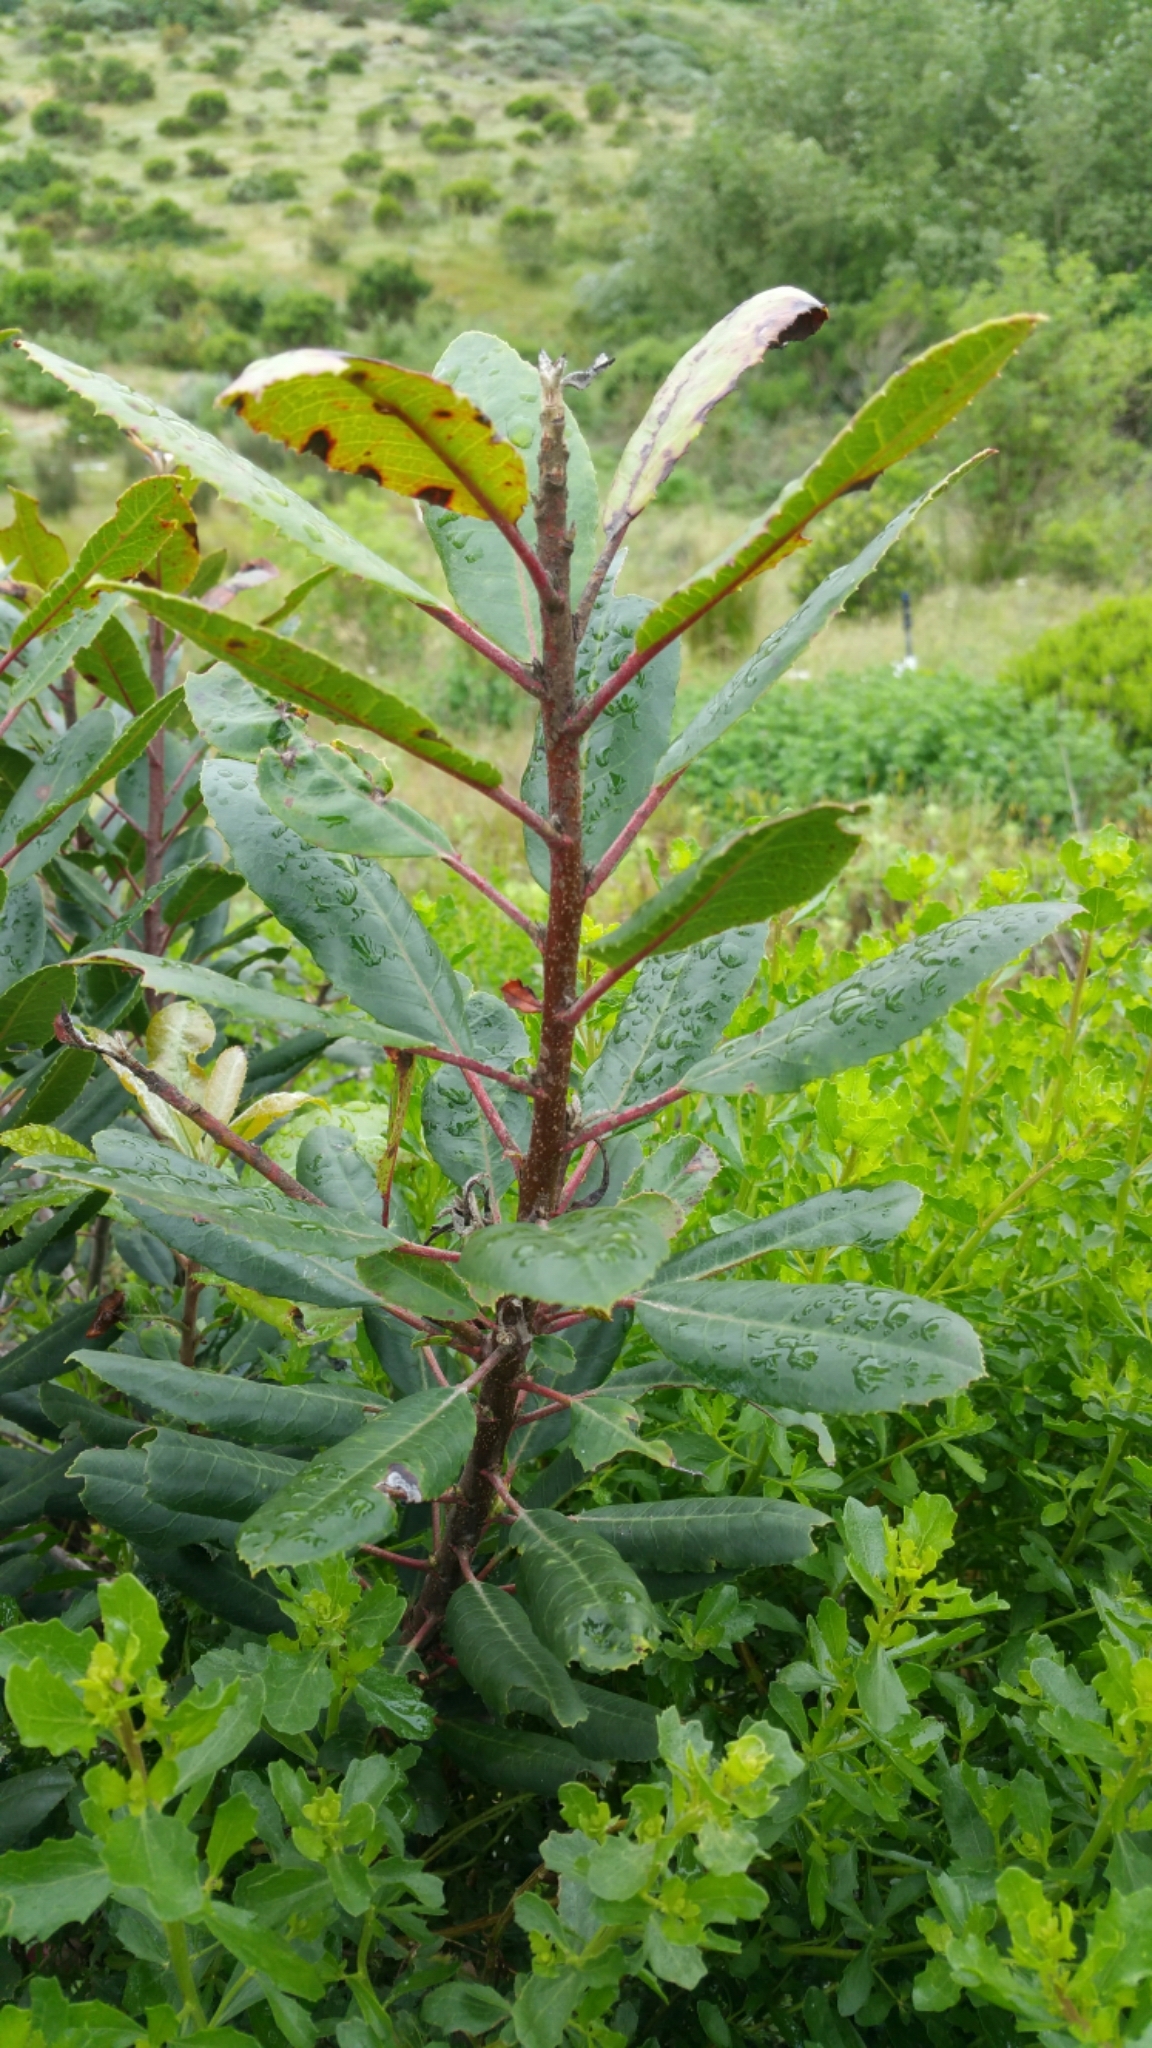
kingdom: Plantae
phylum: Tracheophyta
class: Magnoliopsida
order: Rosales
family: Rosaceae
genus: Heteromeles
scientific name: Heteromeles arbutifolia
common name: California-holly
